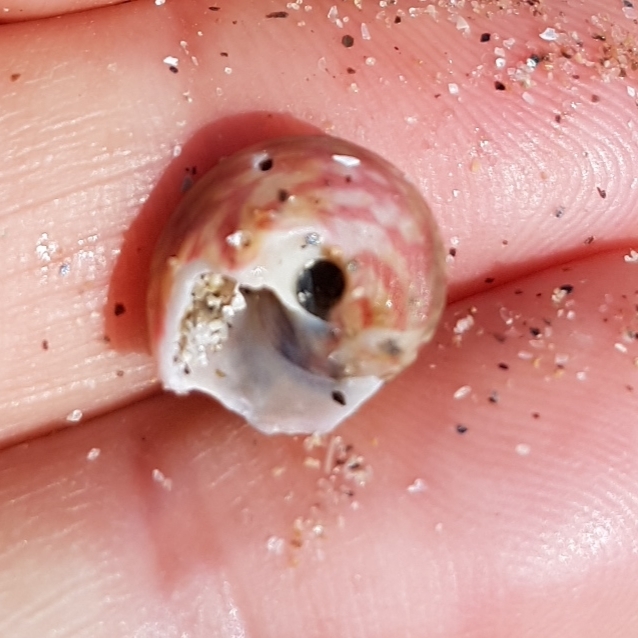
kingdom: Animalia
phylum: Mollusca
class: Gastropoda
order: Trochida
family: Trochidae
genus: Gibbula
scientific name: Gibbula magus
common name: Turban top shell
